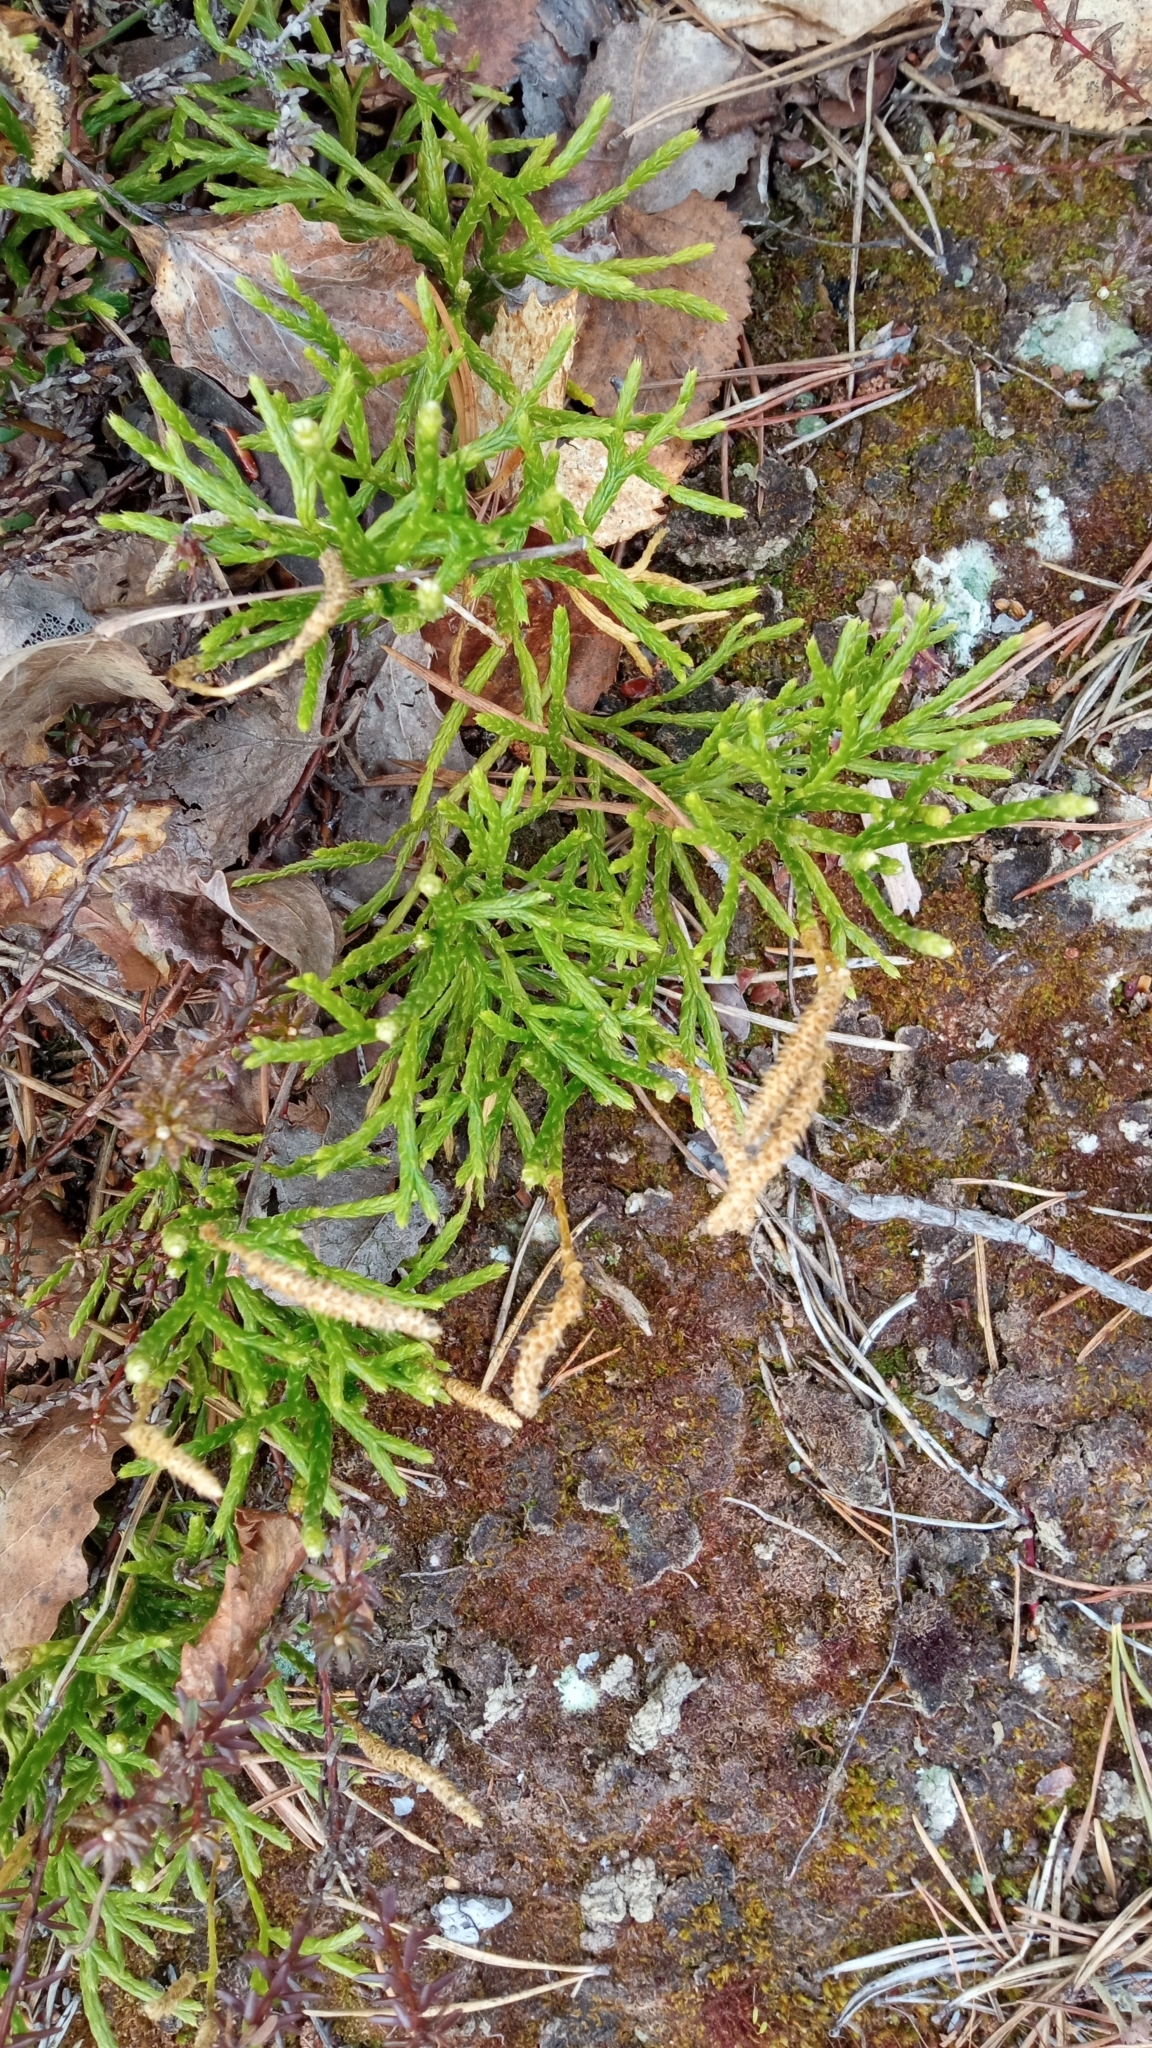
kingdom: Plantae
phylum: Tracheophyta
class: Lycopodiopsida
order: Lycopodiales
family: Lycopodiaceae
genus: Diphasiastrum
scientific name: Diphasiastrum complanatum
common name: Northern running-pine
